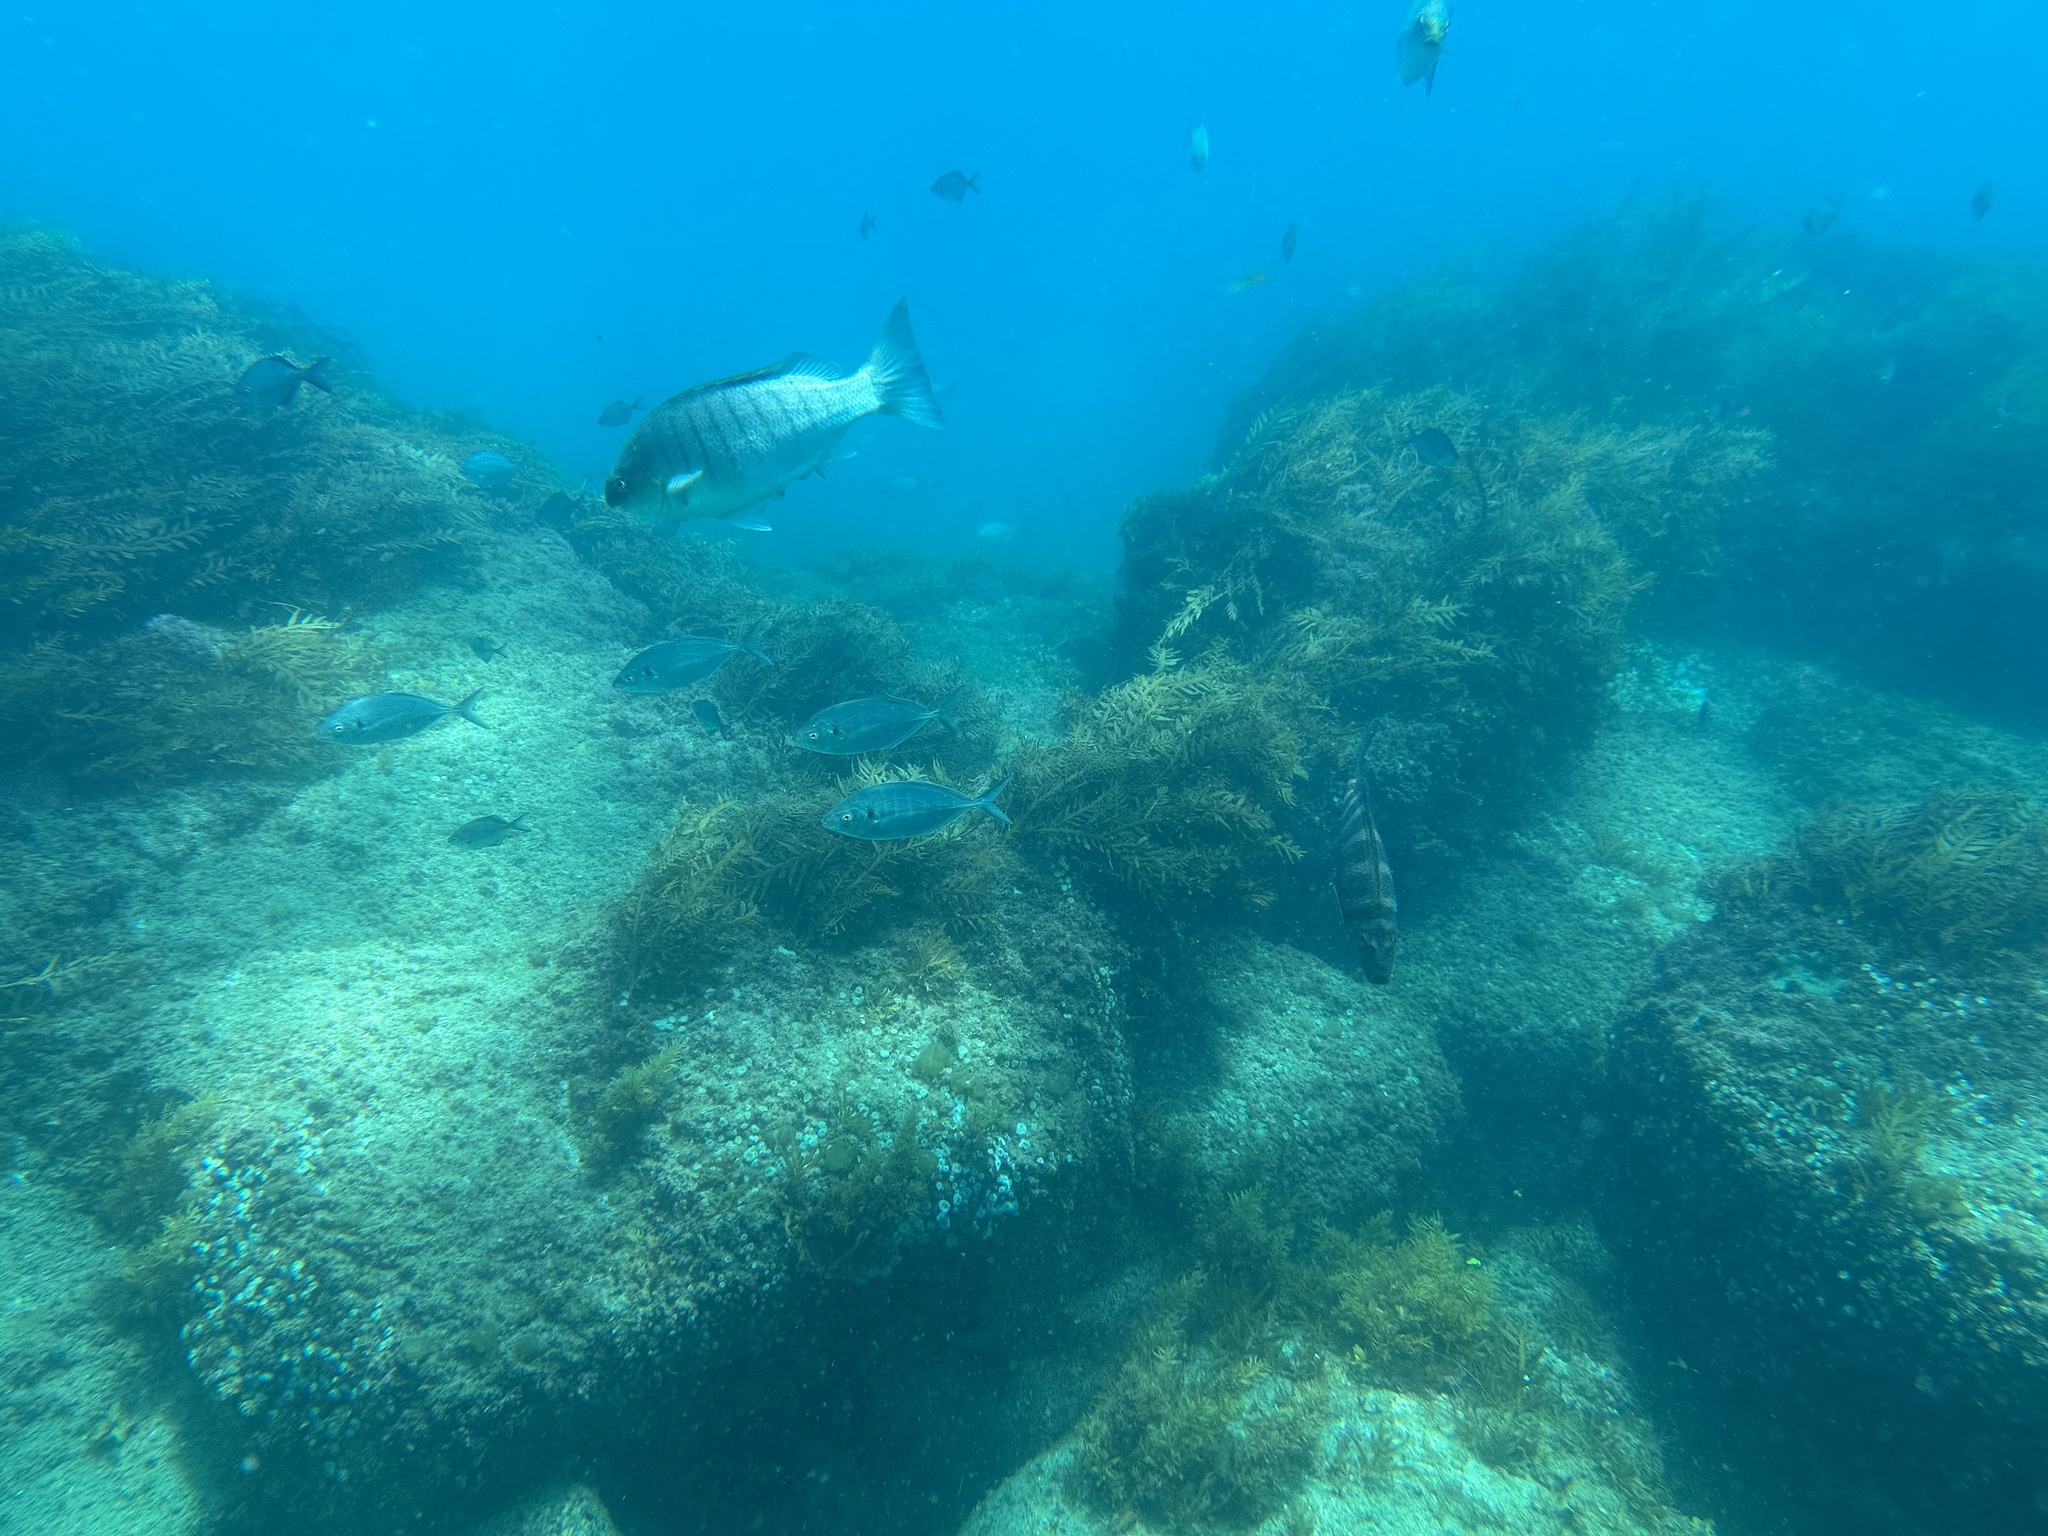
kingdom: Animalia
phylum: Chordata
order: Perciformes
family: Kyphosidae
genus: Girella
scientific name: Girella tricuspidata
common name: Parore
